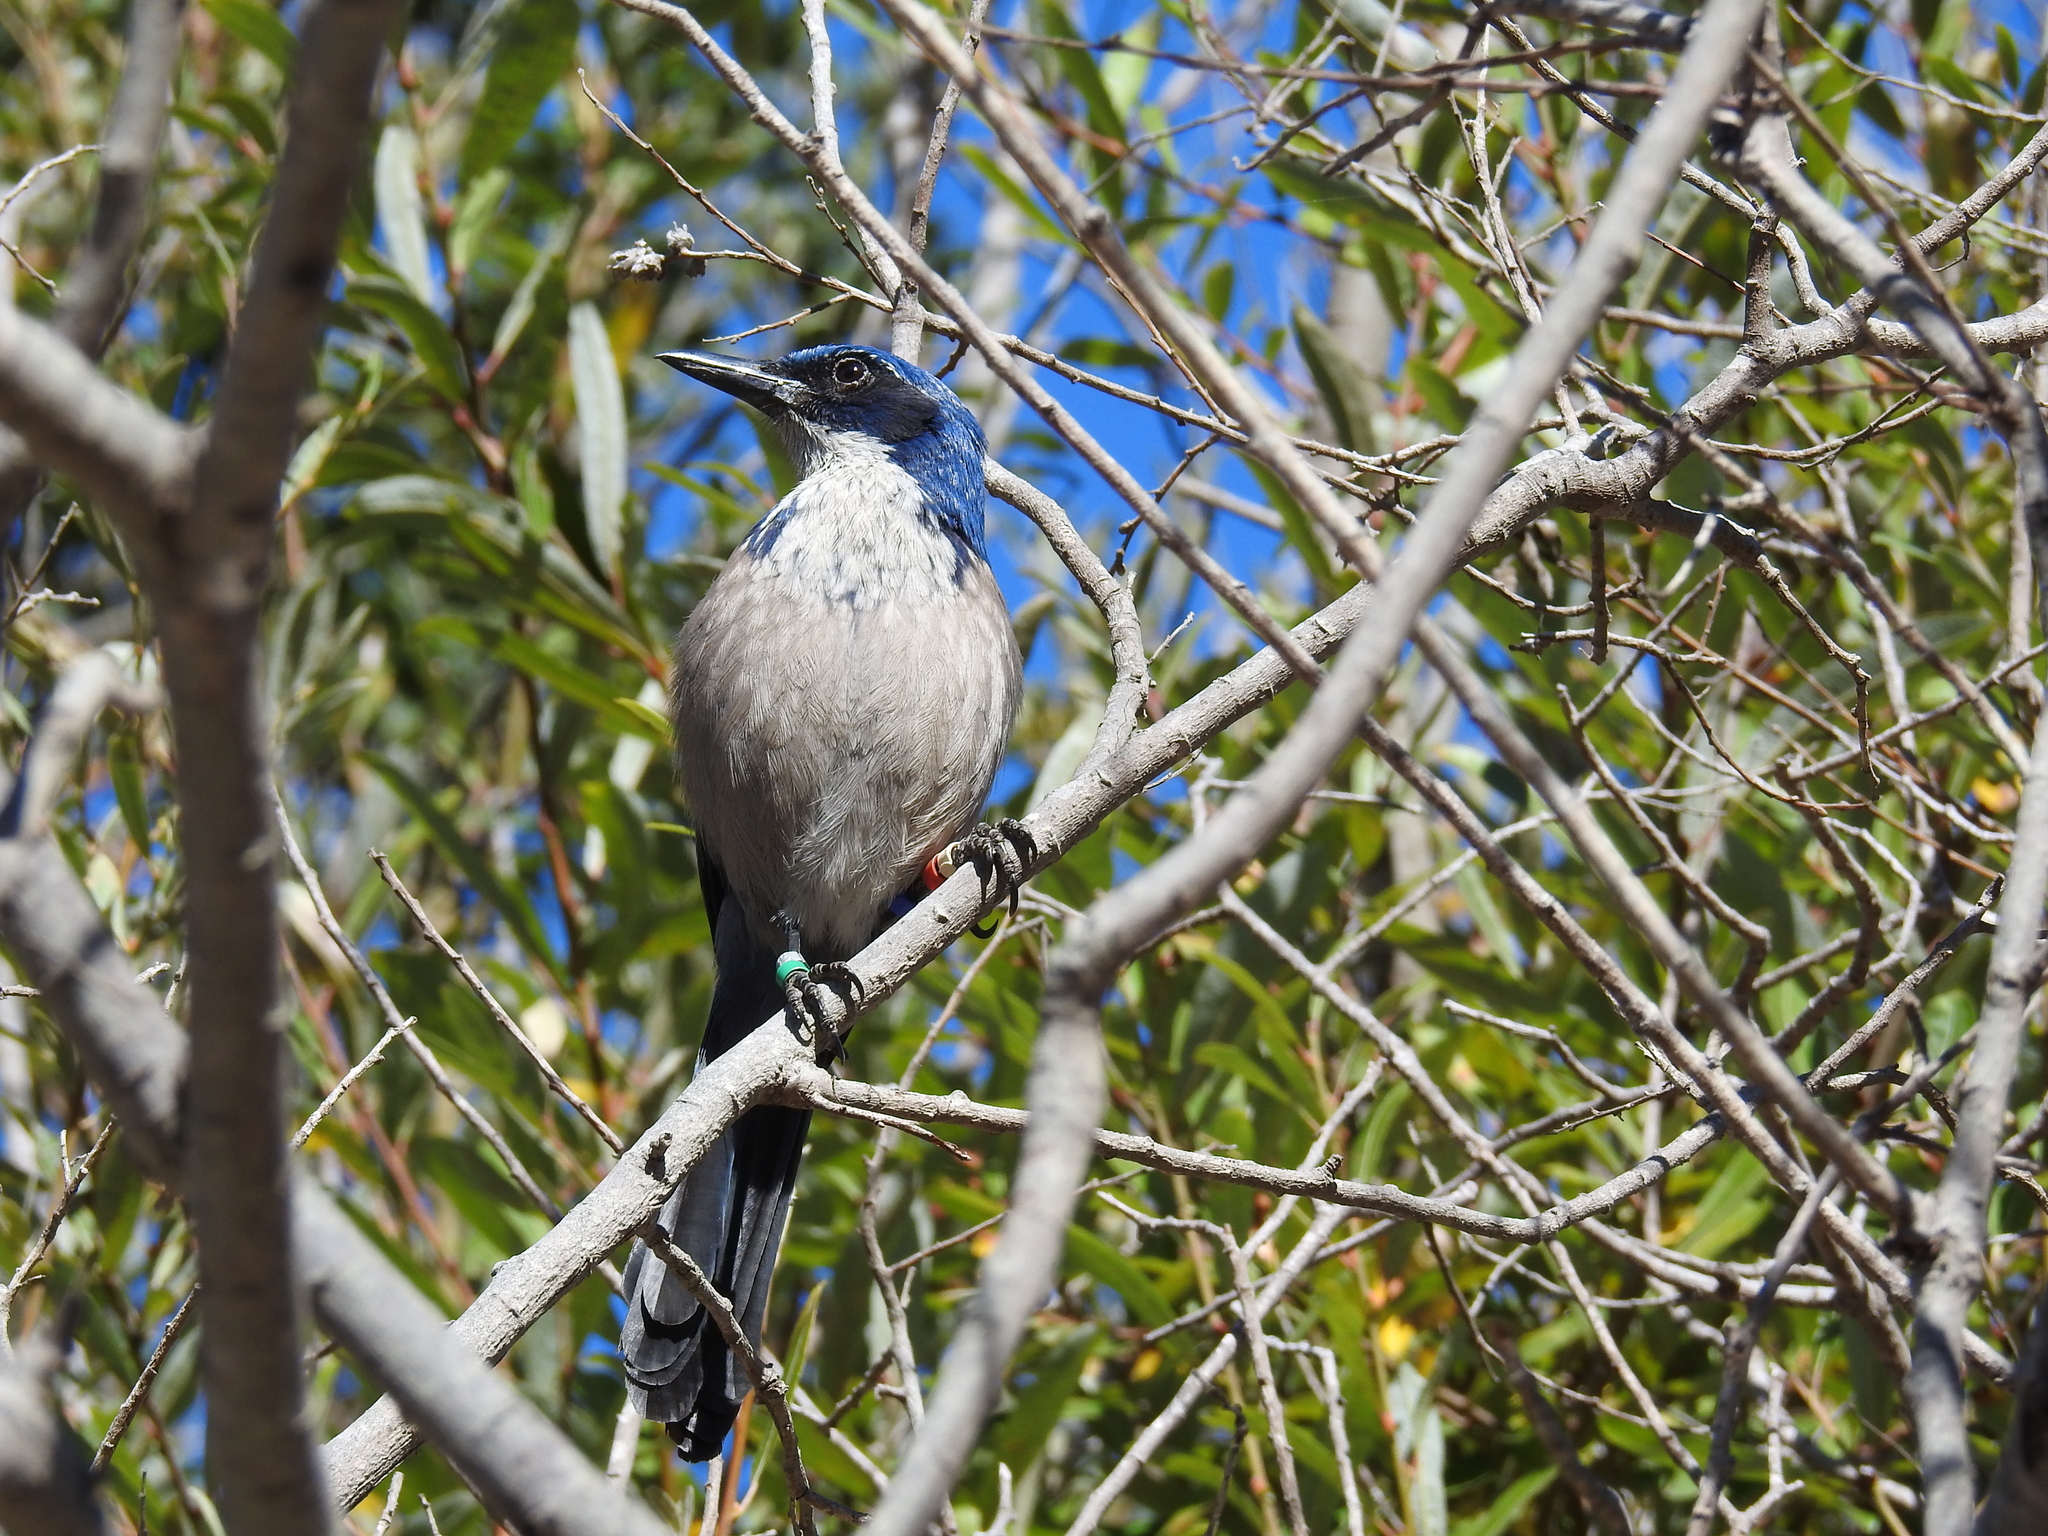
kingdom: Animalia
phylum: Chordata
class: Aves
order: Passeriformes
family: Corvidae
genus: Aphelocoma
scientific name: Aphelocoma insularis
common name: Island scrub-jay
